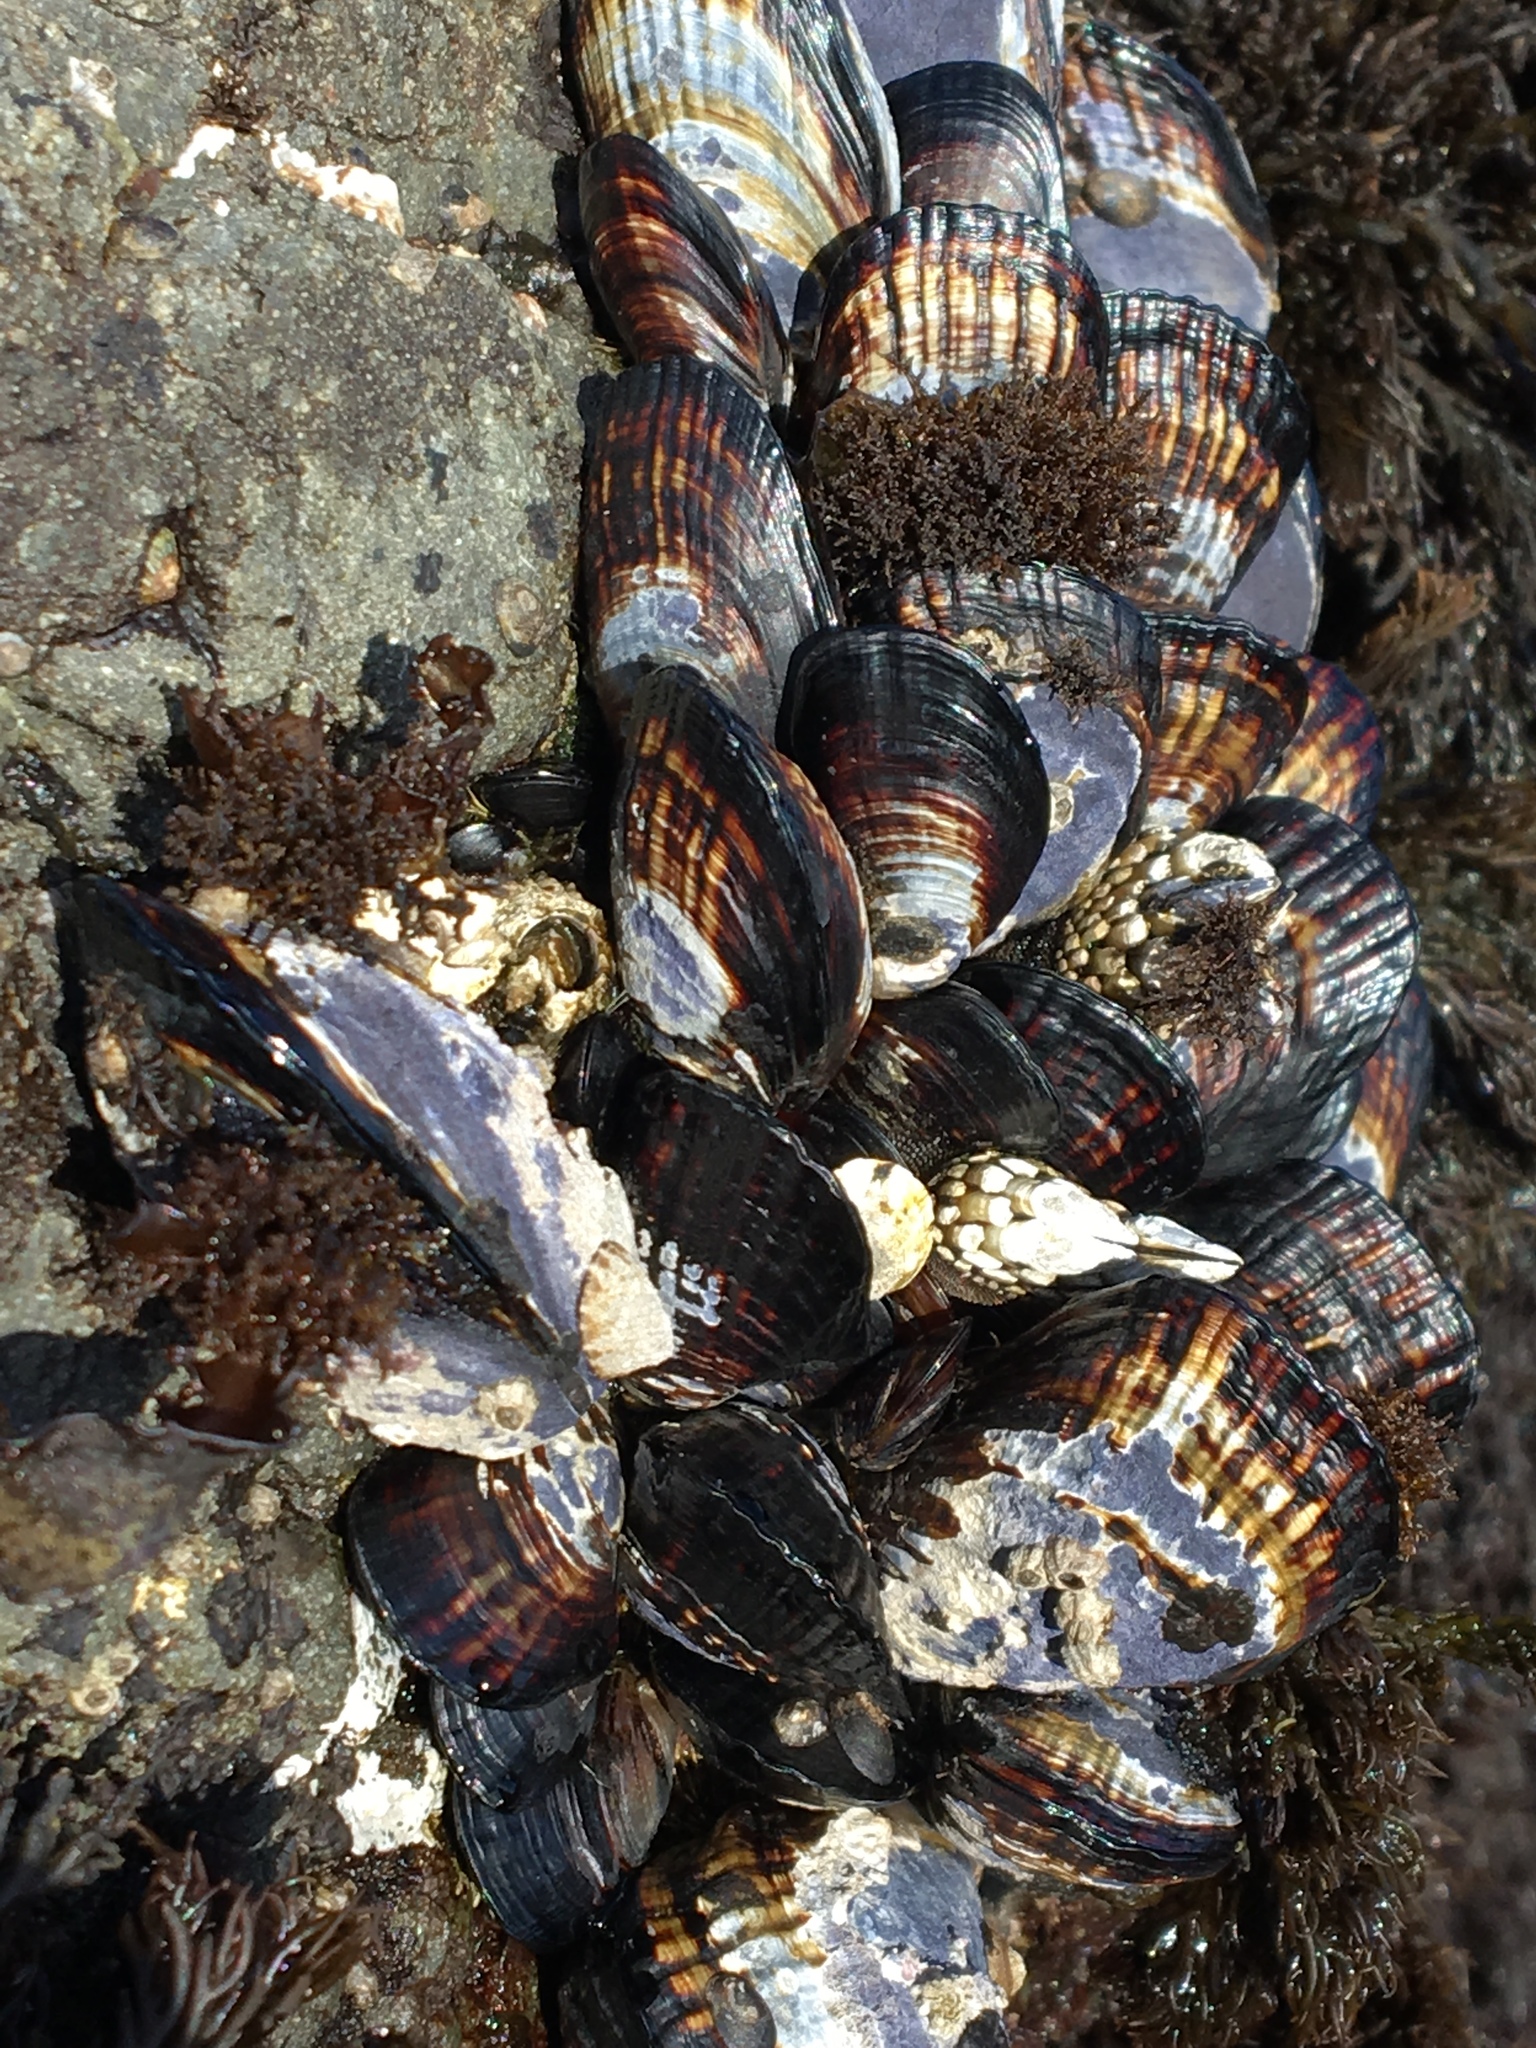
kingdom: Animalia
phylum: Mollusca
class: Bivalvia
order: Mytilida
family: Mytilidae
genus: Mytilus
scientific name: Mytilus californianus
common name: California mussel
